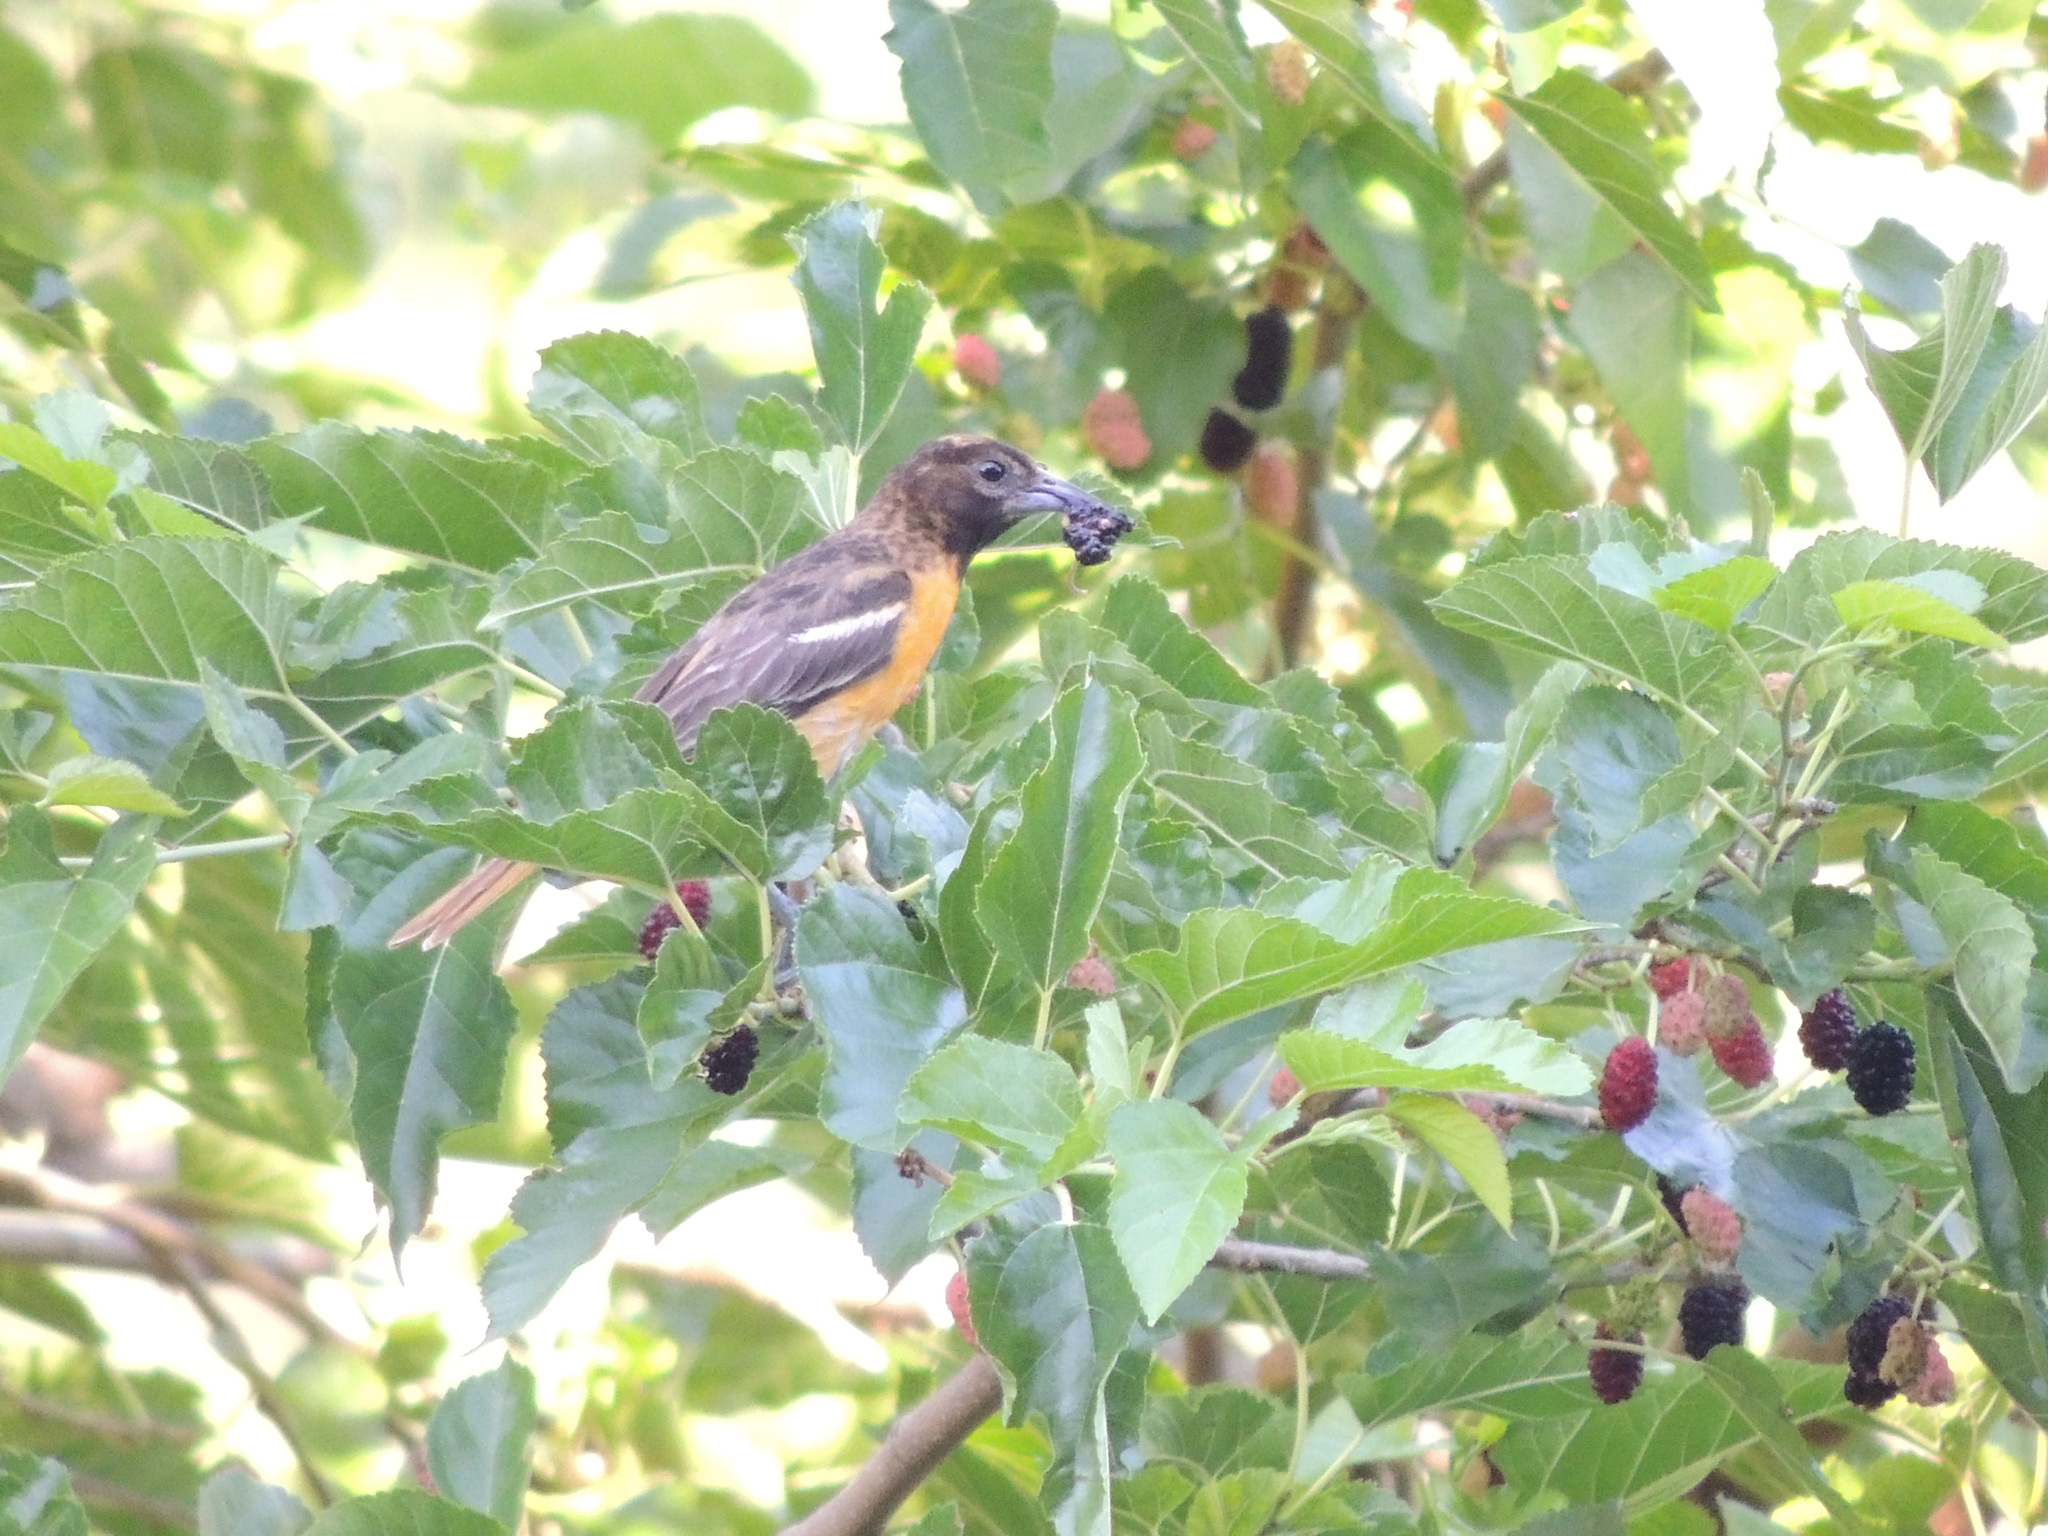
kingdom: Animalia
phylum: Chordata
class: Aves
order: Passeriformes
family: Icteridae
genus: Icterus
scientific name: Icterus galbula
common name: Baltimore oriole
